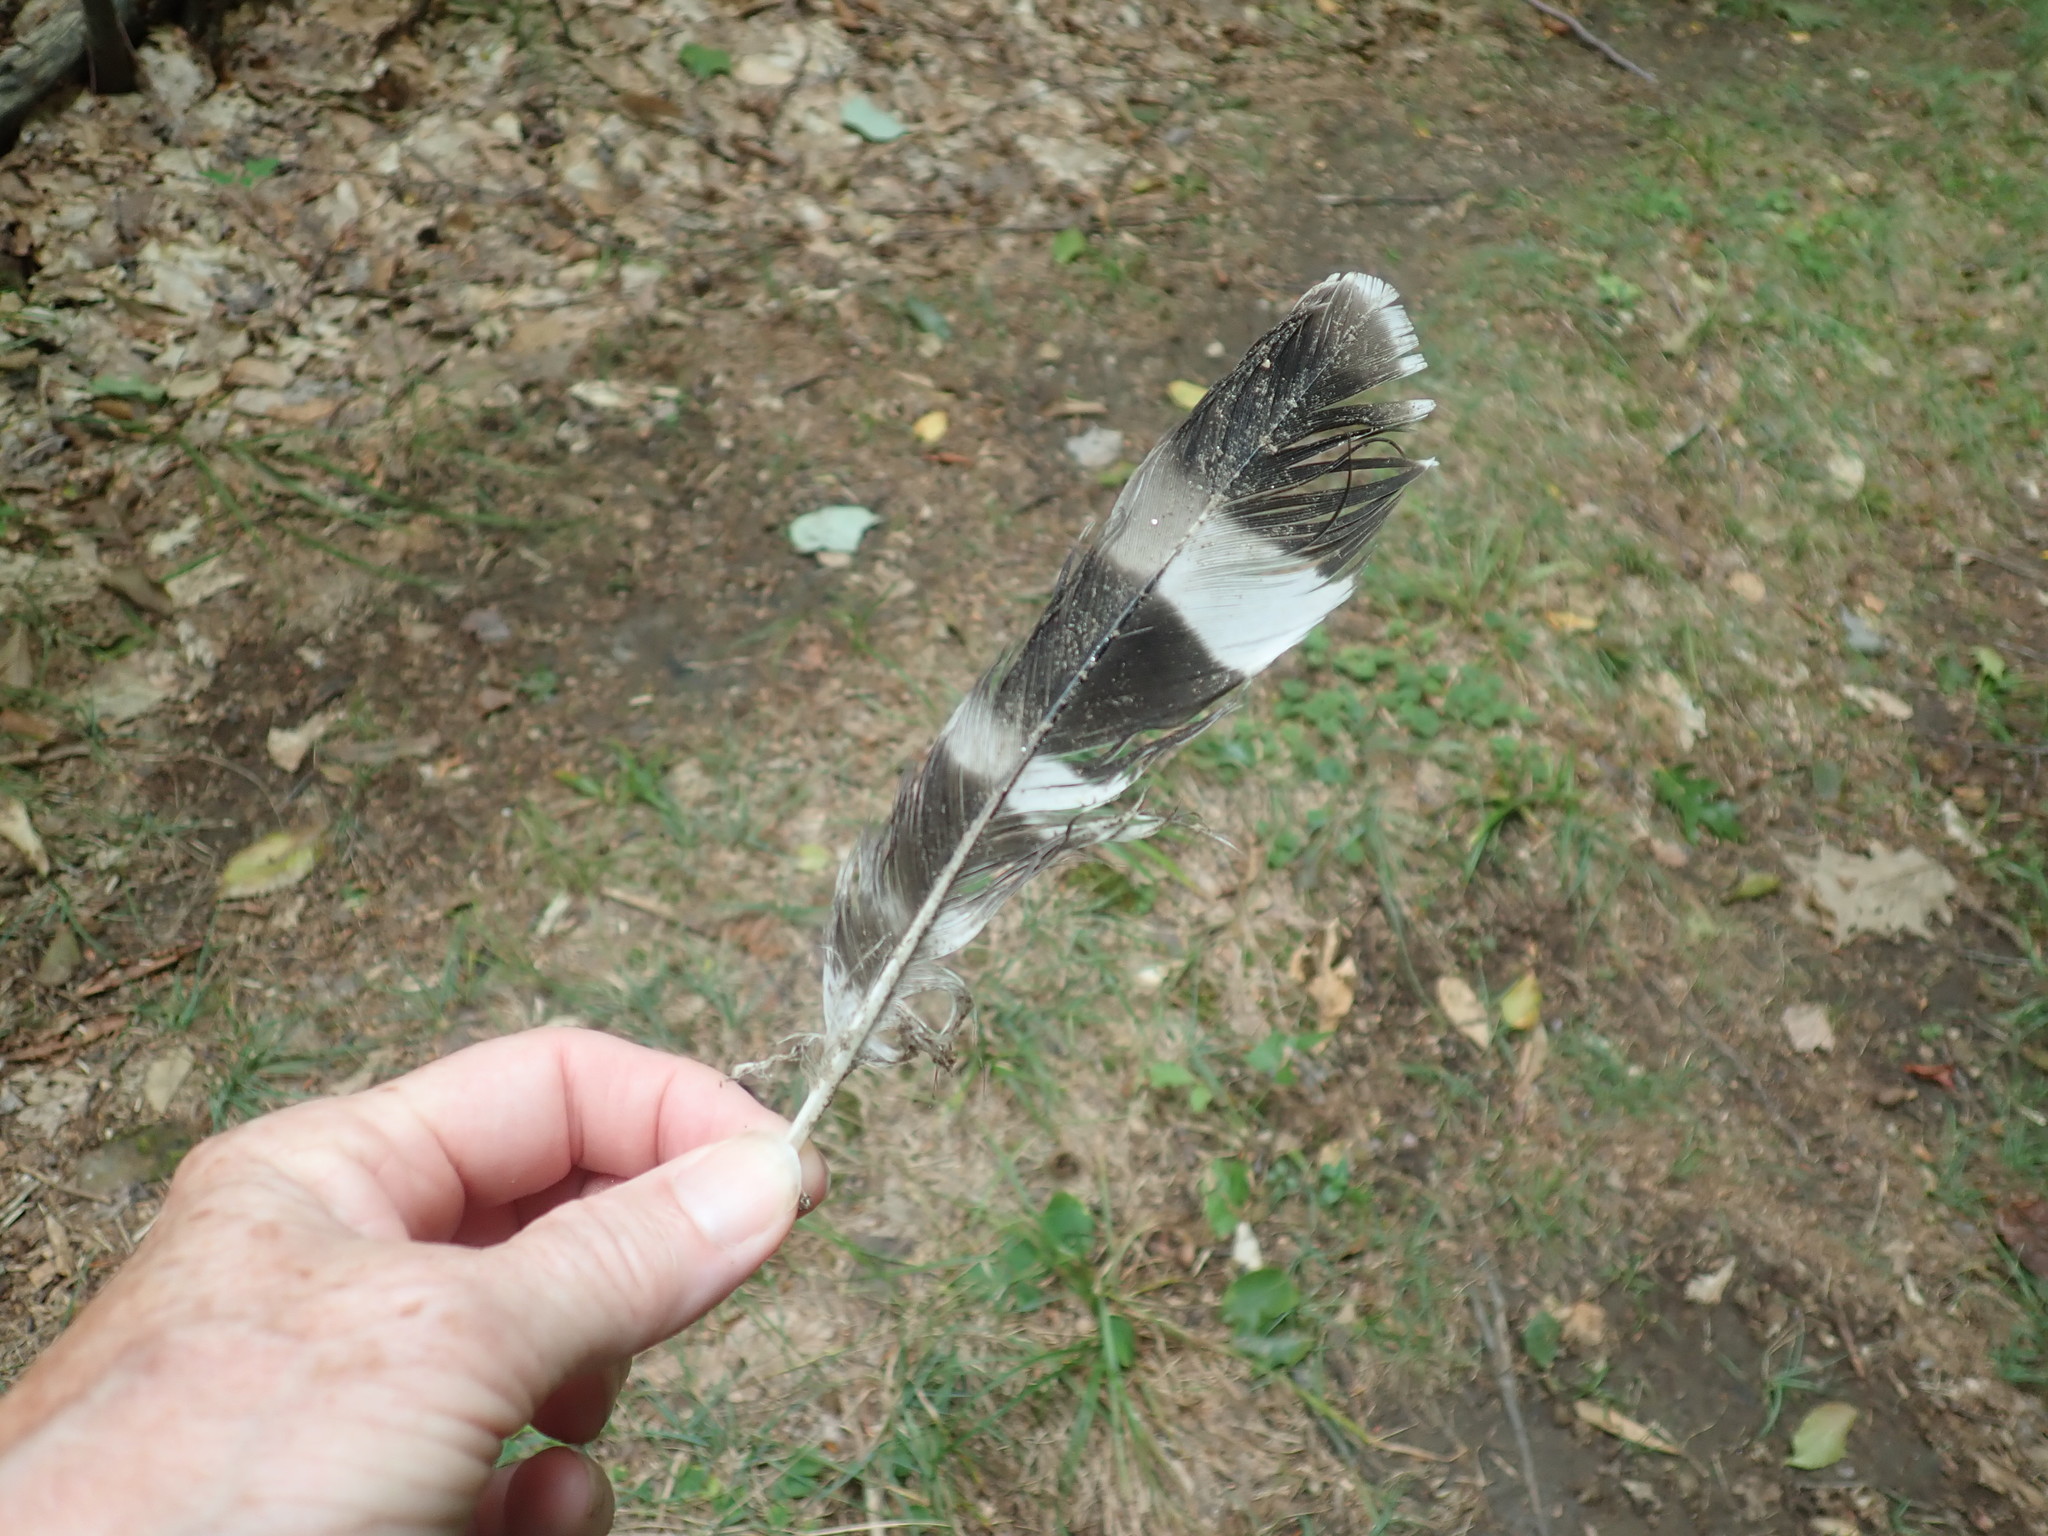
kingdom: Animalia
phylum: Chordata
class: Aves
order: Accipitriformes
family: Accipitridae
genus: Buteo
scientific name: Buteo platypterus
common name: Broad-winged hawk
